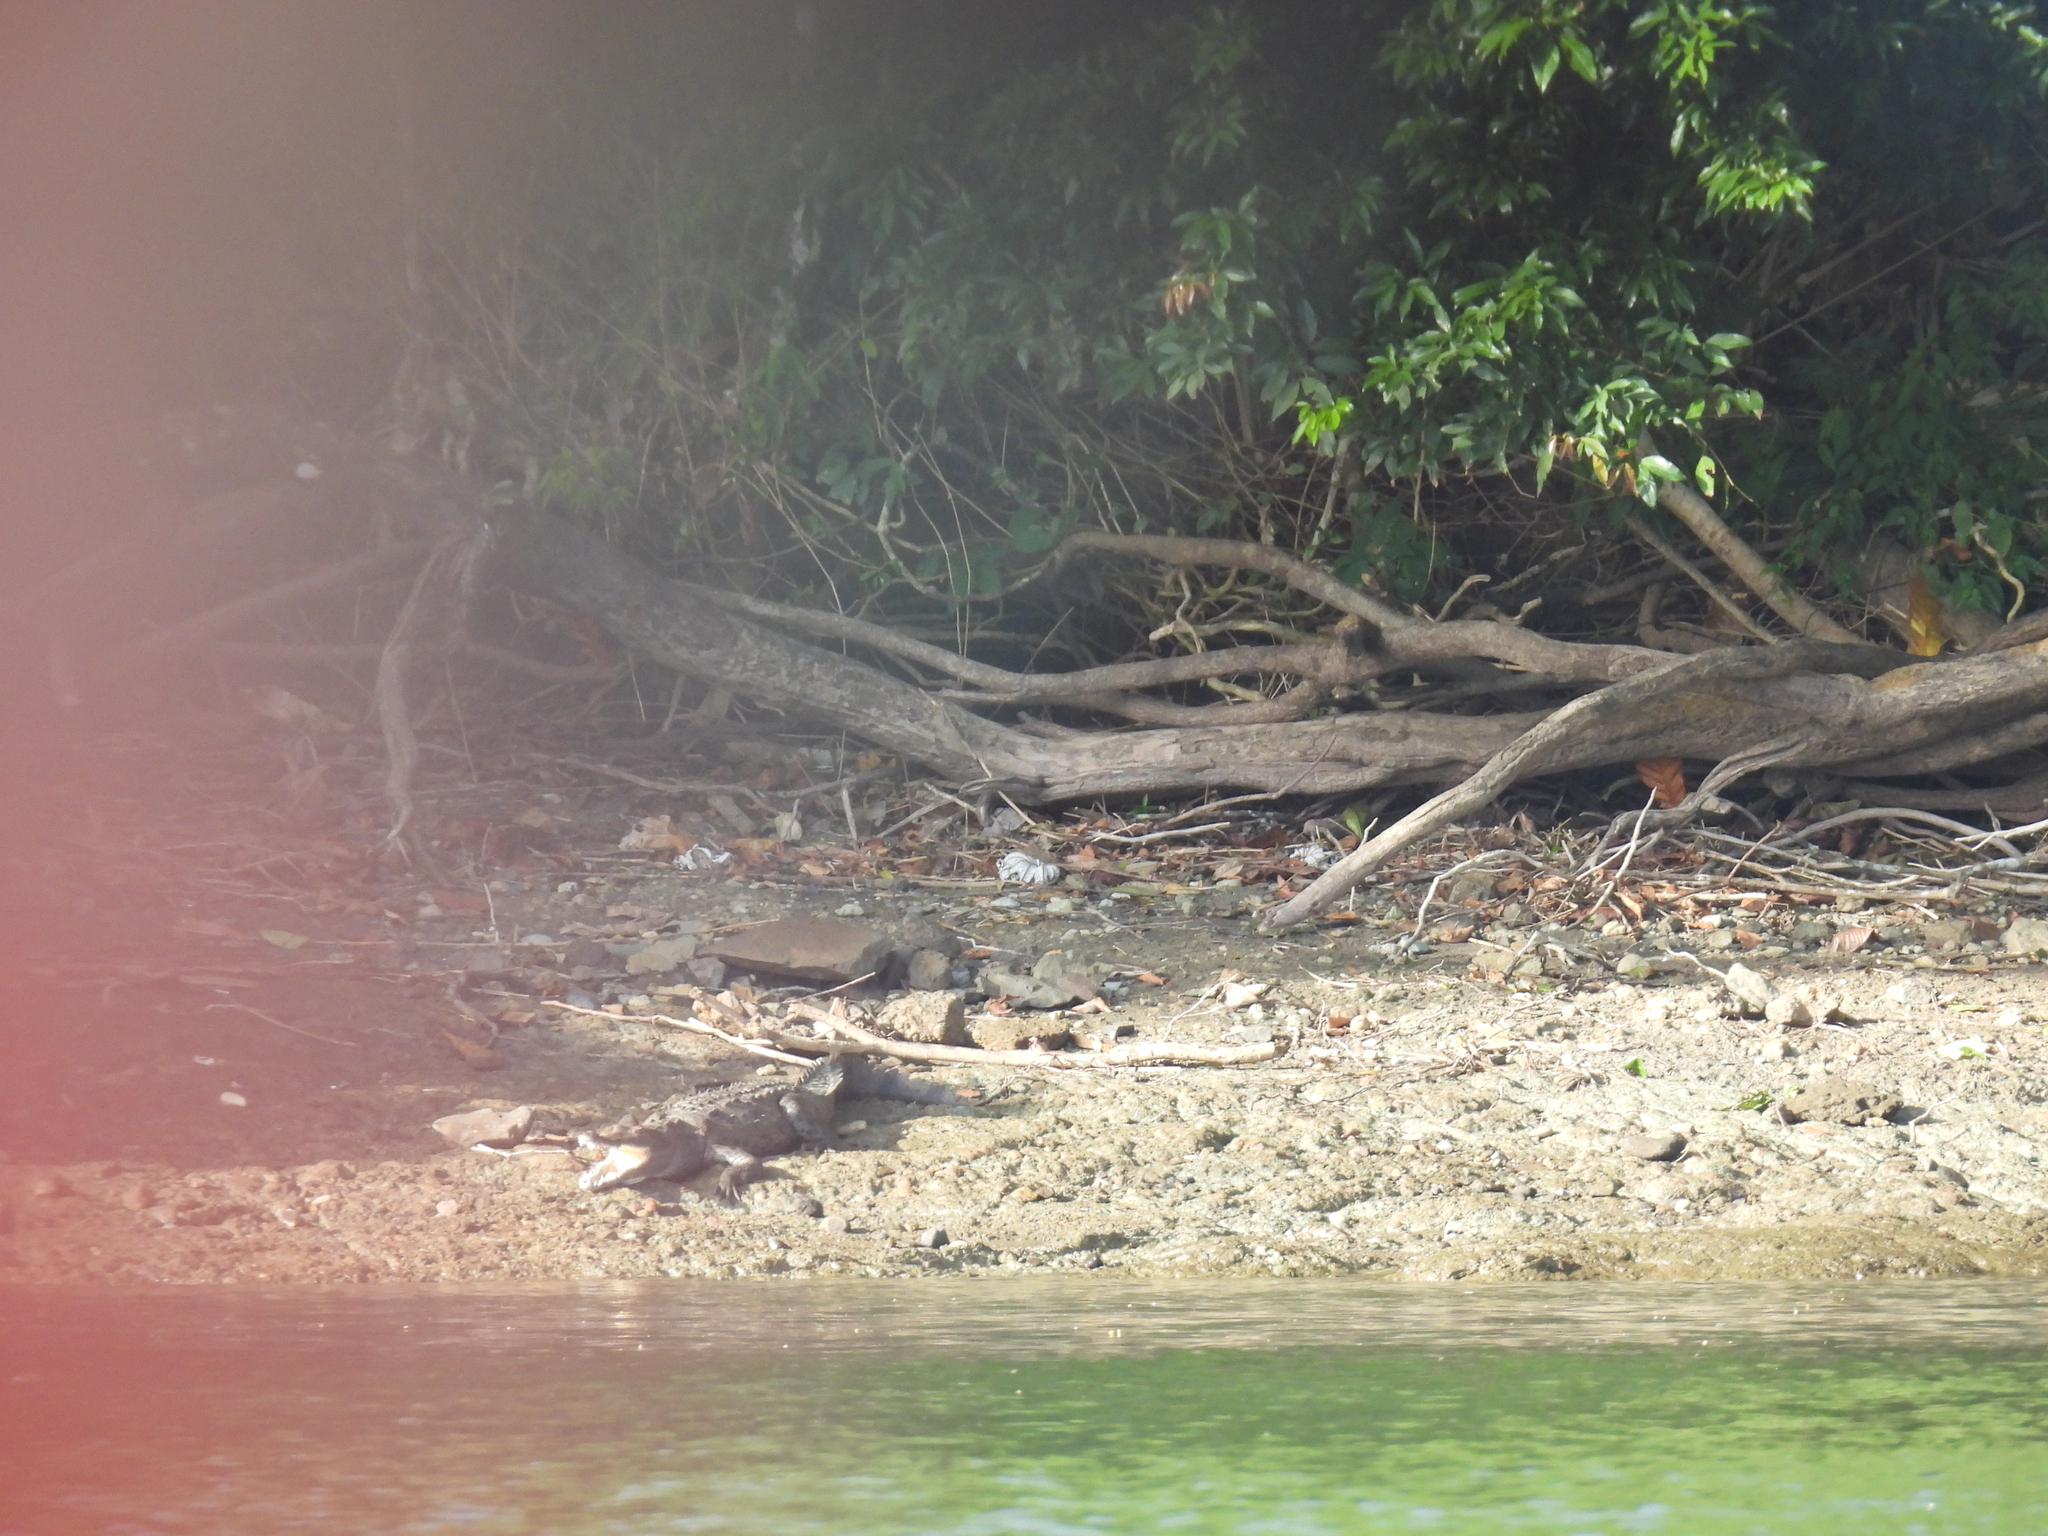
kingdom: Animalia
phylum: Chordata
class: Crocodylia
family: Alligatoridae
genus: Caiman
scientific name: Caiman crocodilus
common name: Common caiman
